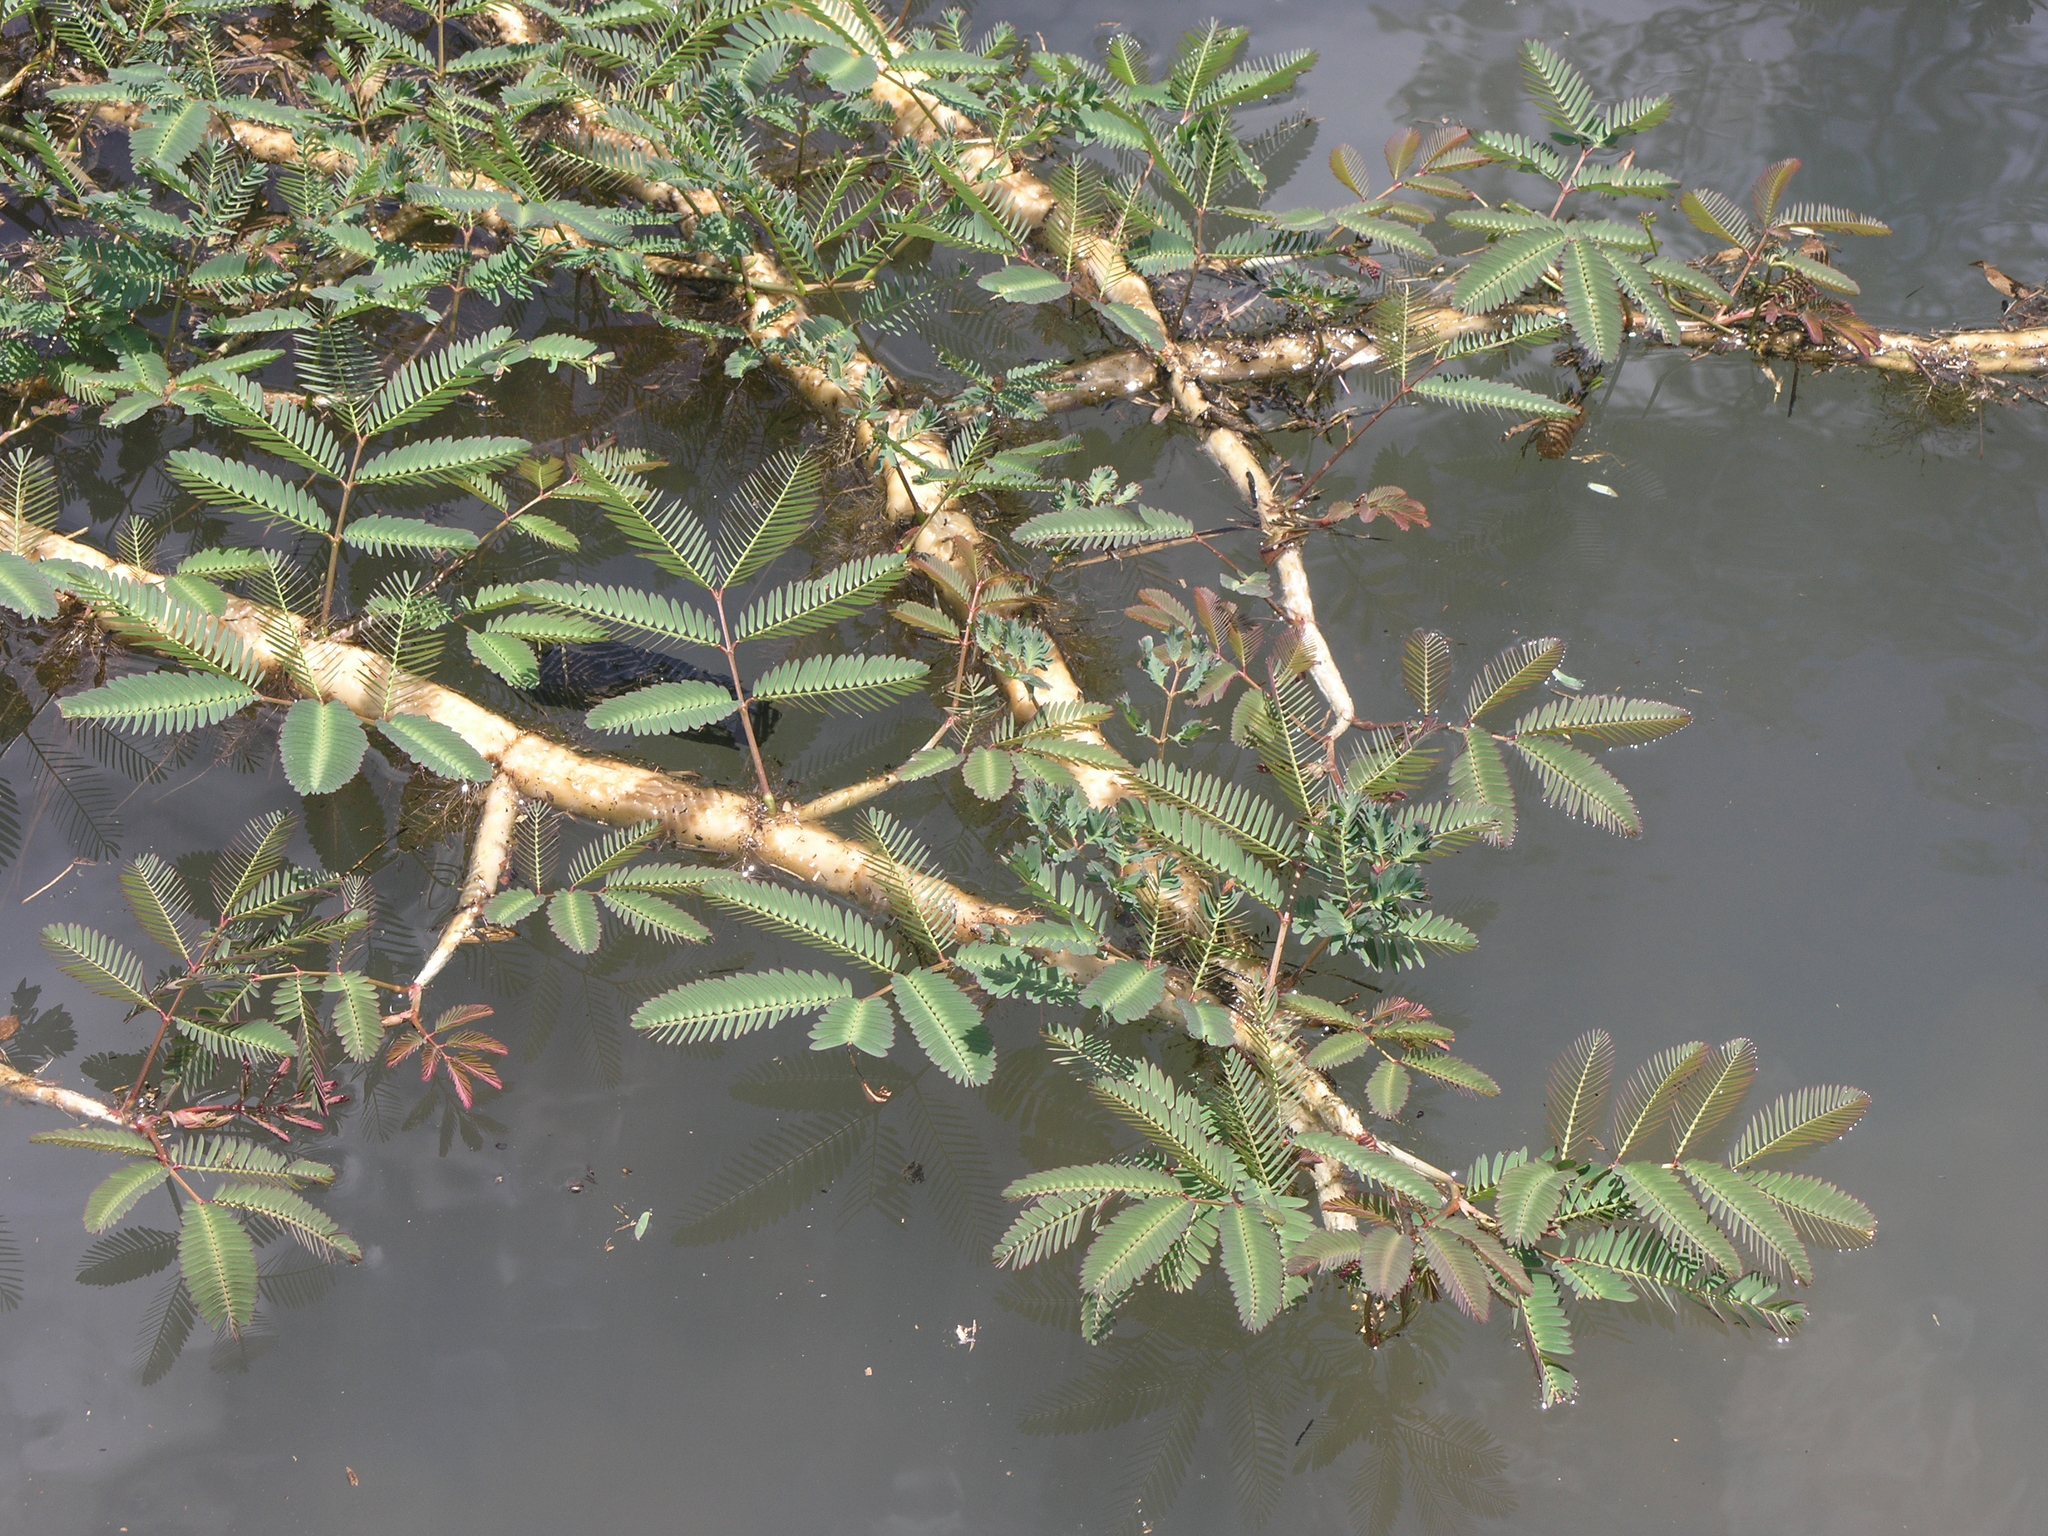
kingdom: Plantae
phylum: Tracheophyta
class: Magnoliopsida
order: Fabales
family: Fabaceae
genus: Neptunia
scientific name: Neptunia plena
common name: Dead and awake
